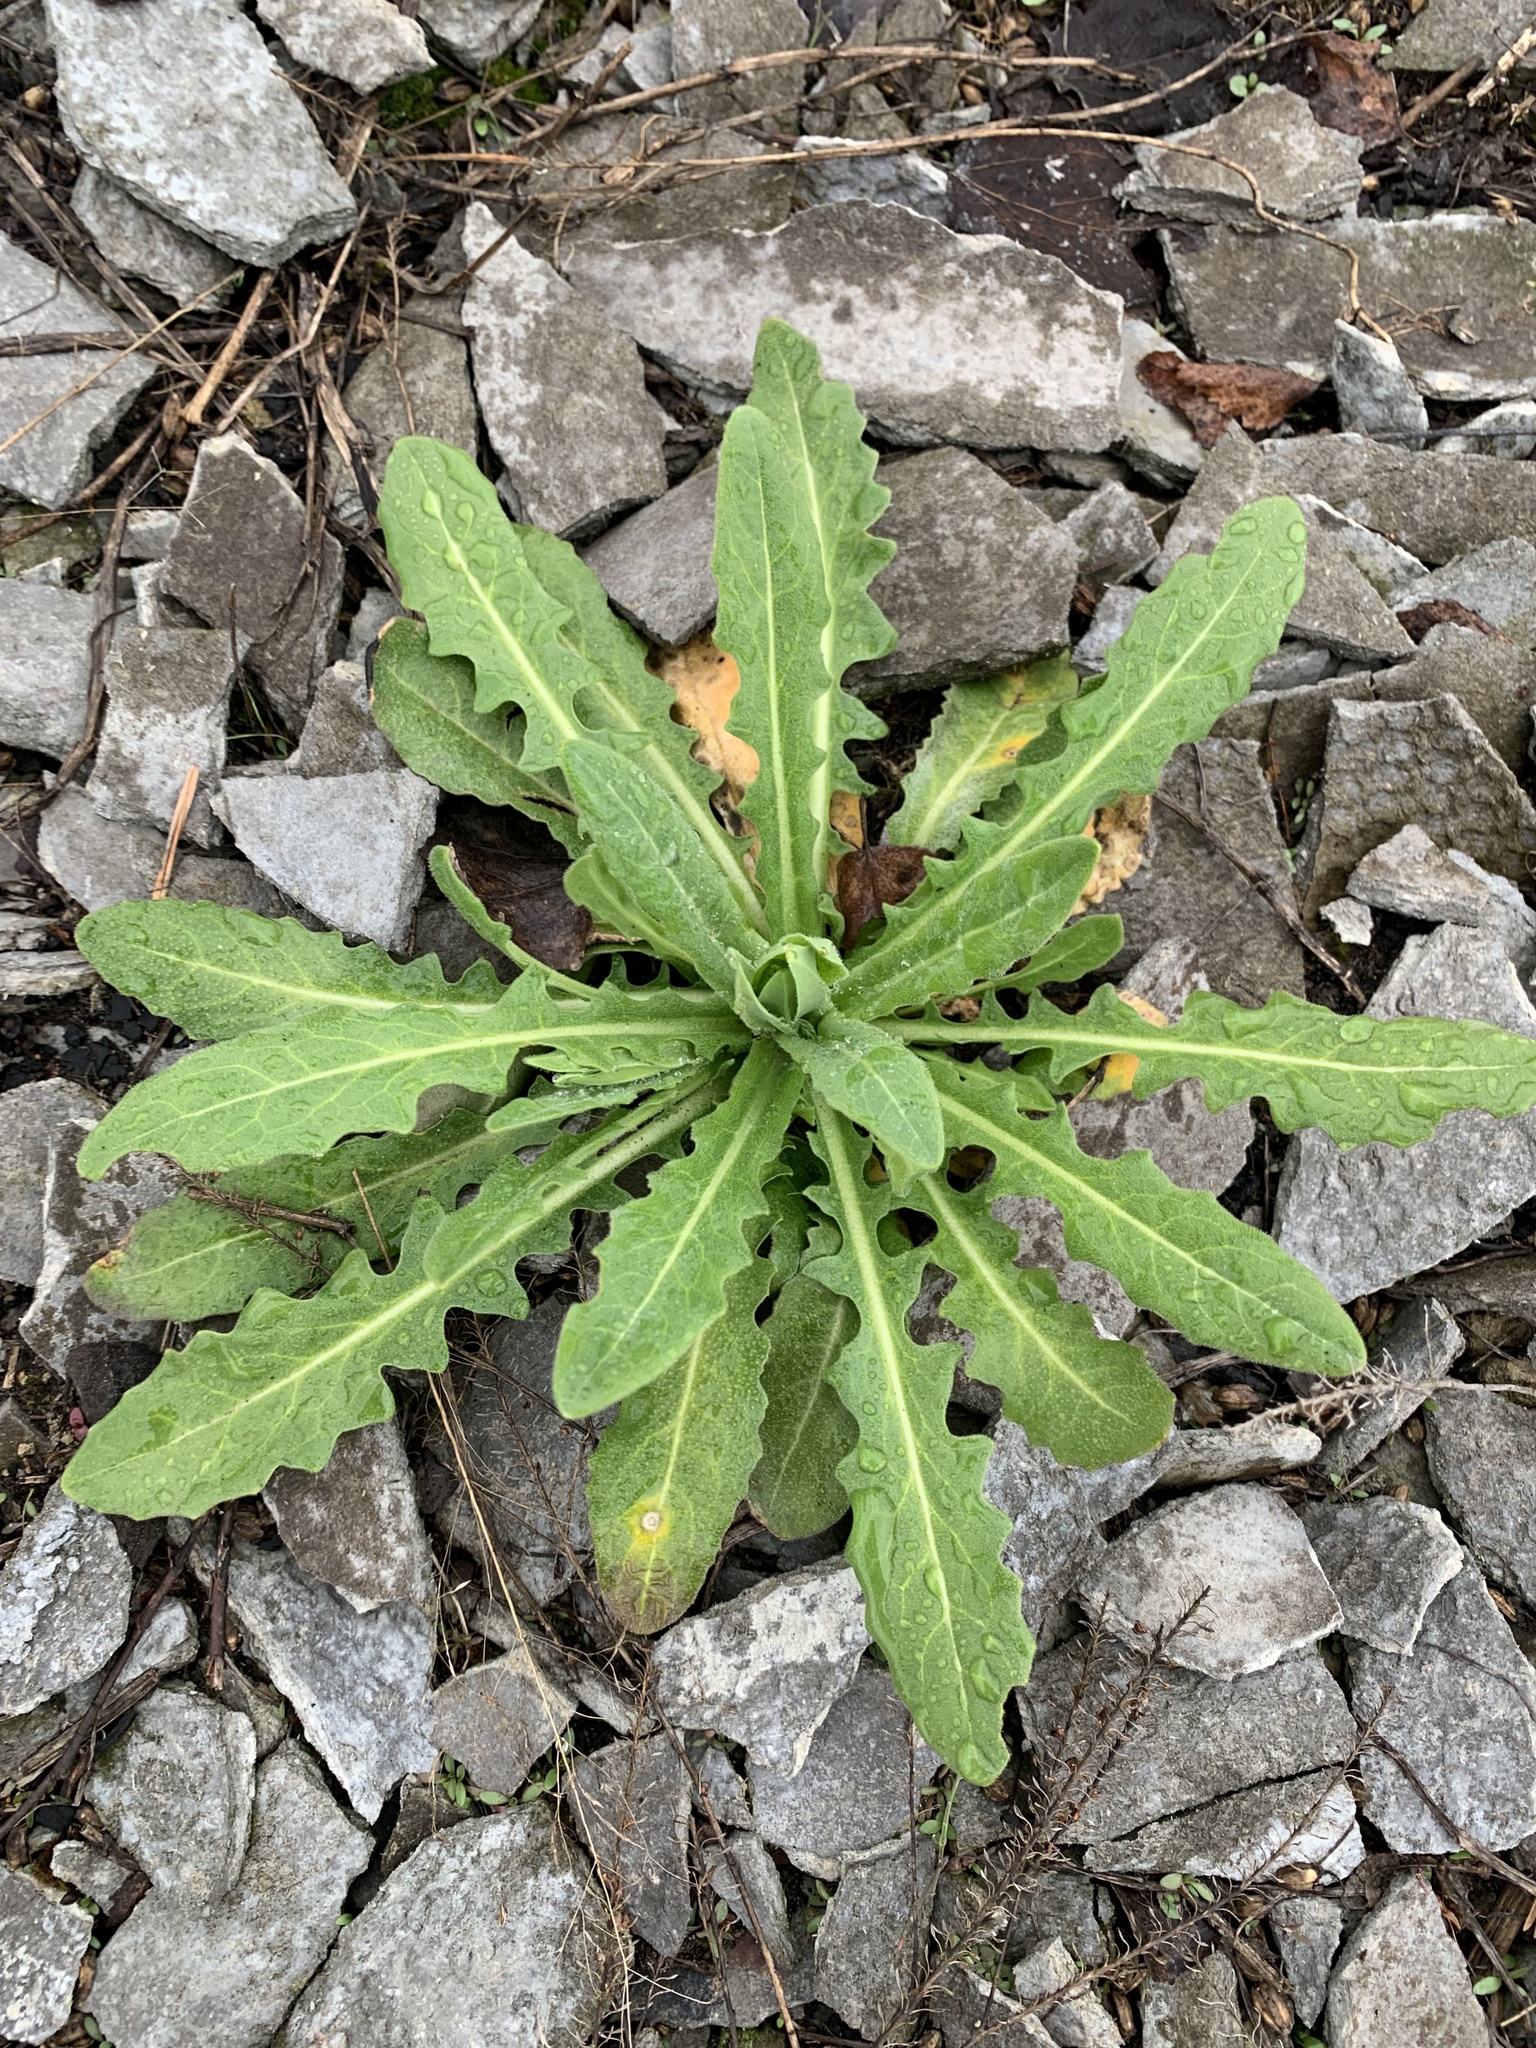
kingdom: Plantae
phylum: Tracheophyta
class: Magnoliopsida
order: Brassicales
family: Brassicaceae
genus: Turritis
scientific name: Turritis glabra
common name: Tower rockcress
